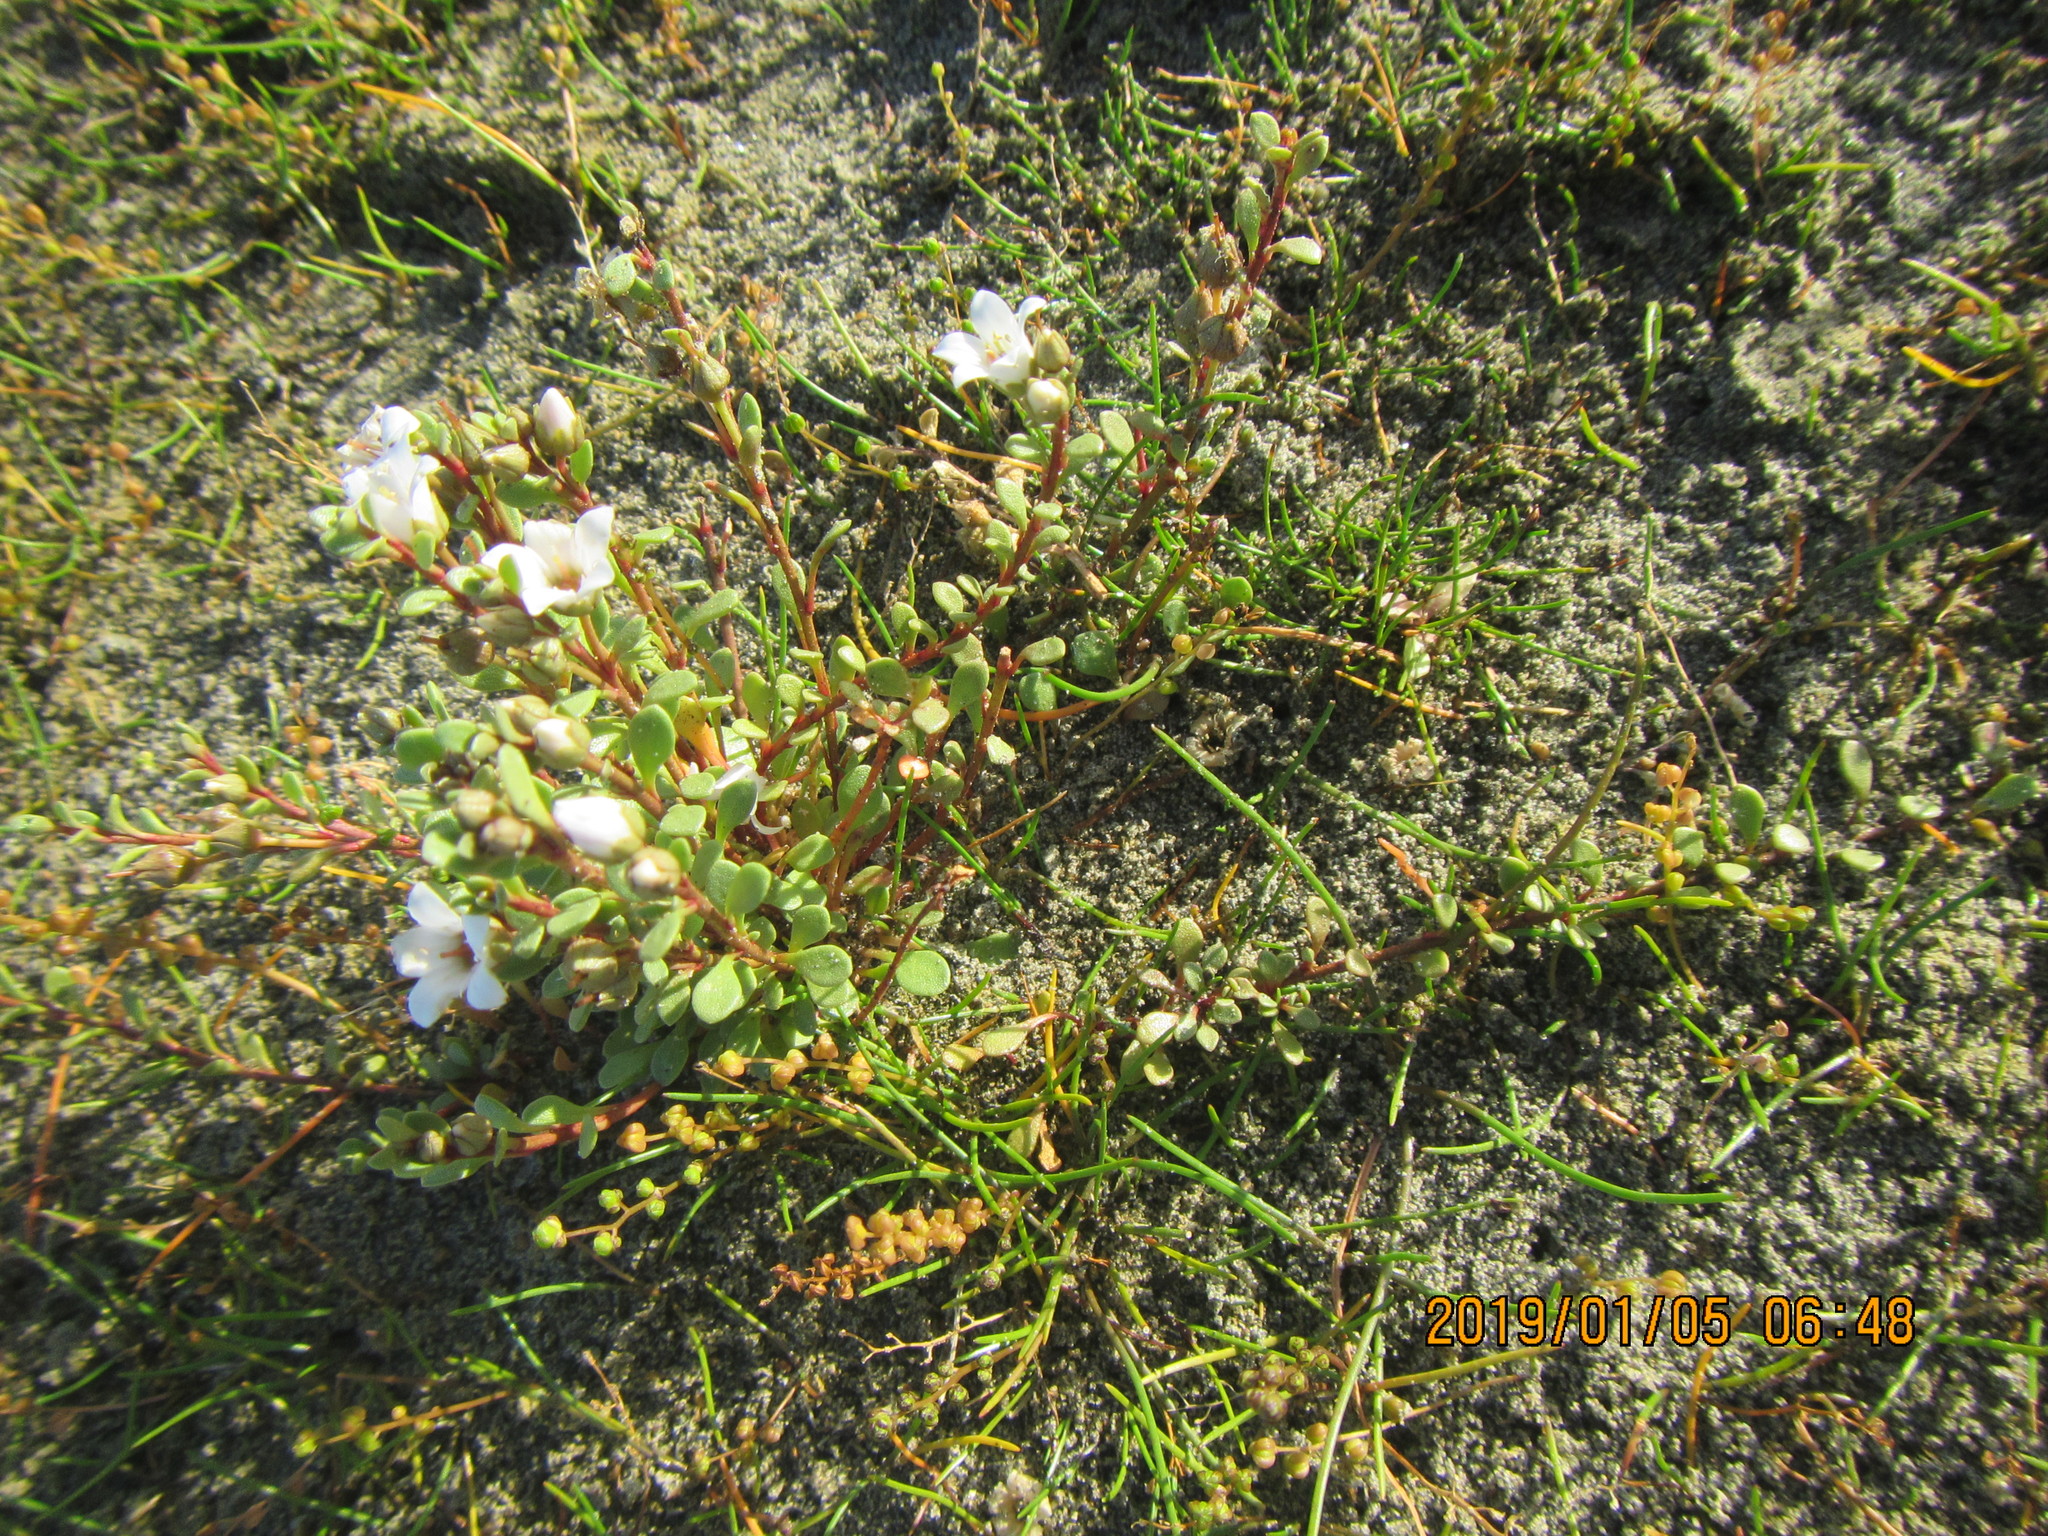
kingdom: Plantae
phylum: Tracheophyta
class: Magnoliopsida
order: Ericales
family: Primulaceae
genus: Samolus
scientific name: Samolus repens
